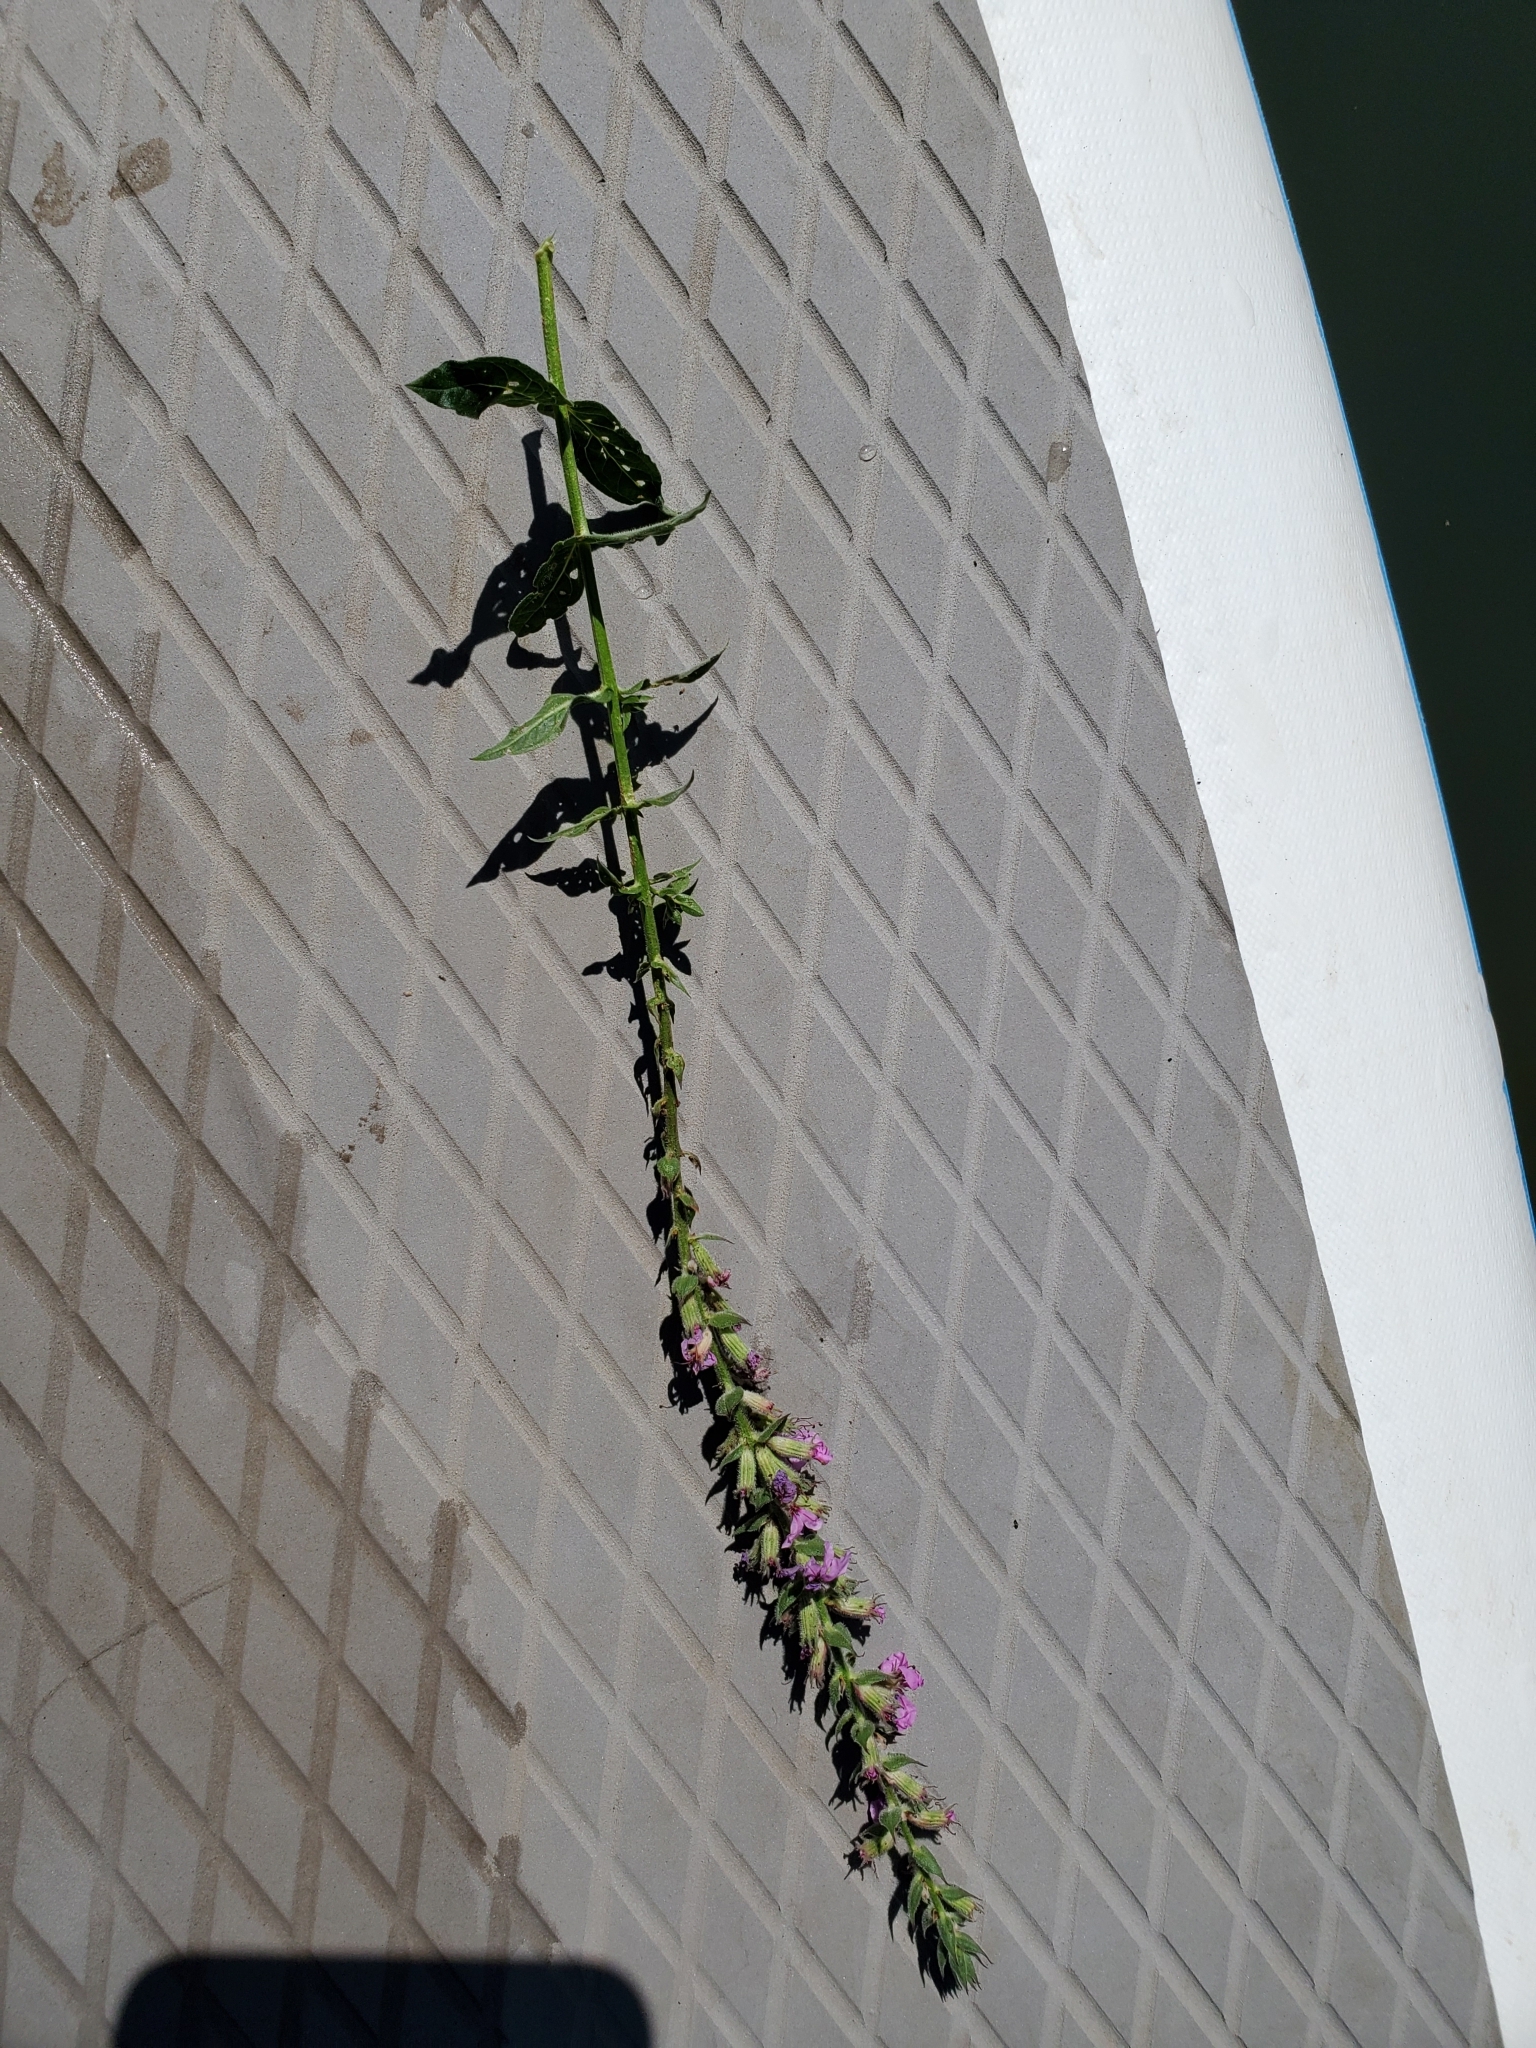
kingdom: Plantae
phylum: Tracheophyta
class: Magnoliopsida
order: Myrtales
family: Lythraceae
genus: Lythrum
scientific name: Lythrum salicaria
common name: Purple loosestrife
